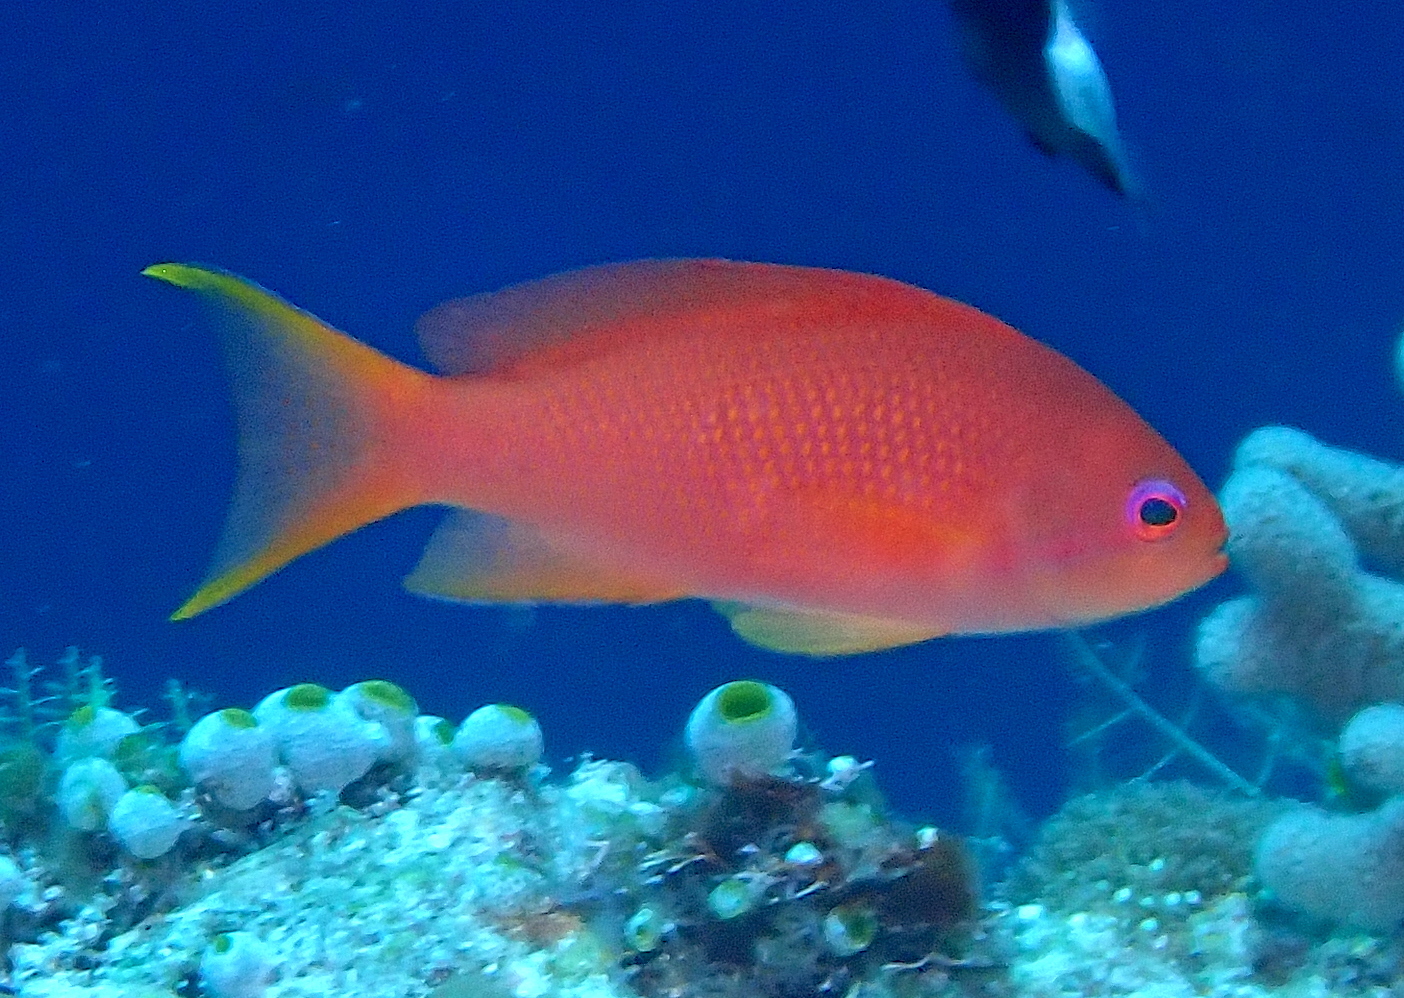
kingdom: Animalia
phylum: Chordata
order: Perciformes
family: Serranidae
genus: Pseudanthias
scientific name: Pseudanthias squamipinnis
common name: Scalefin anthias
